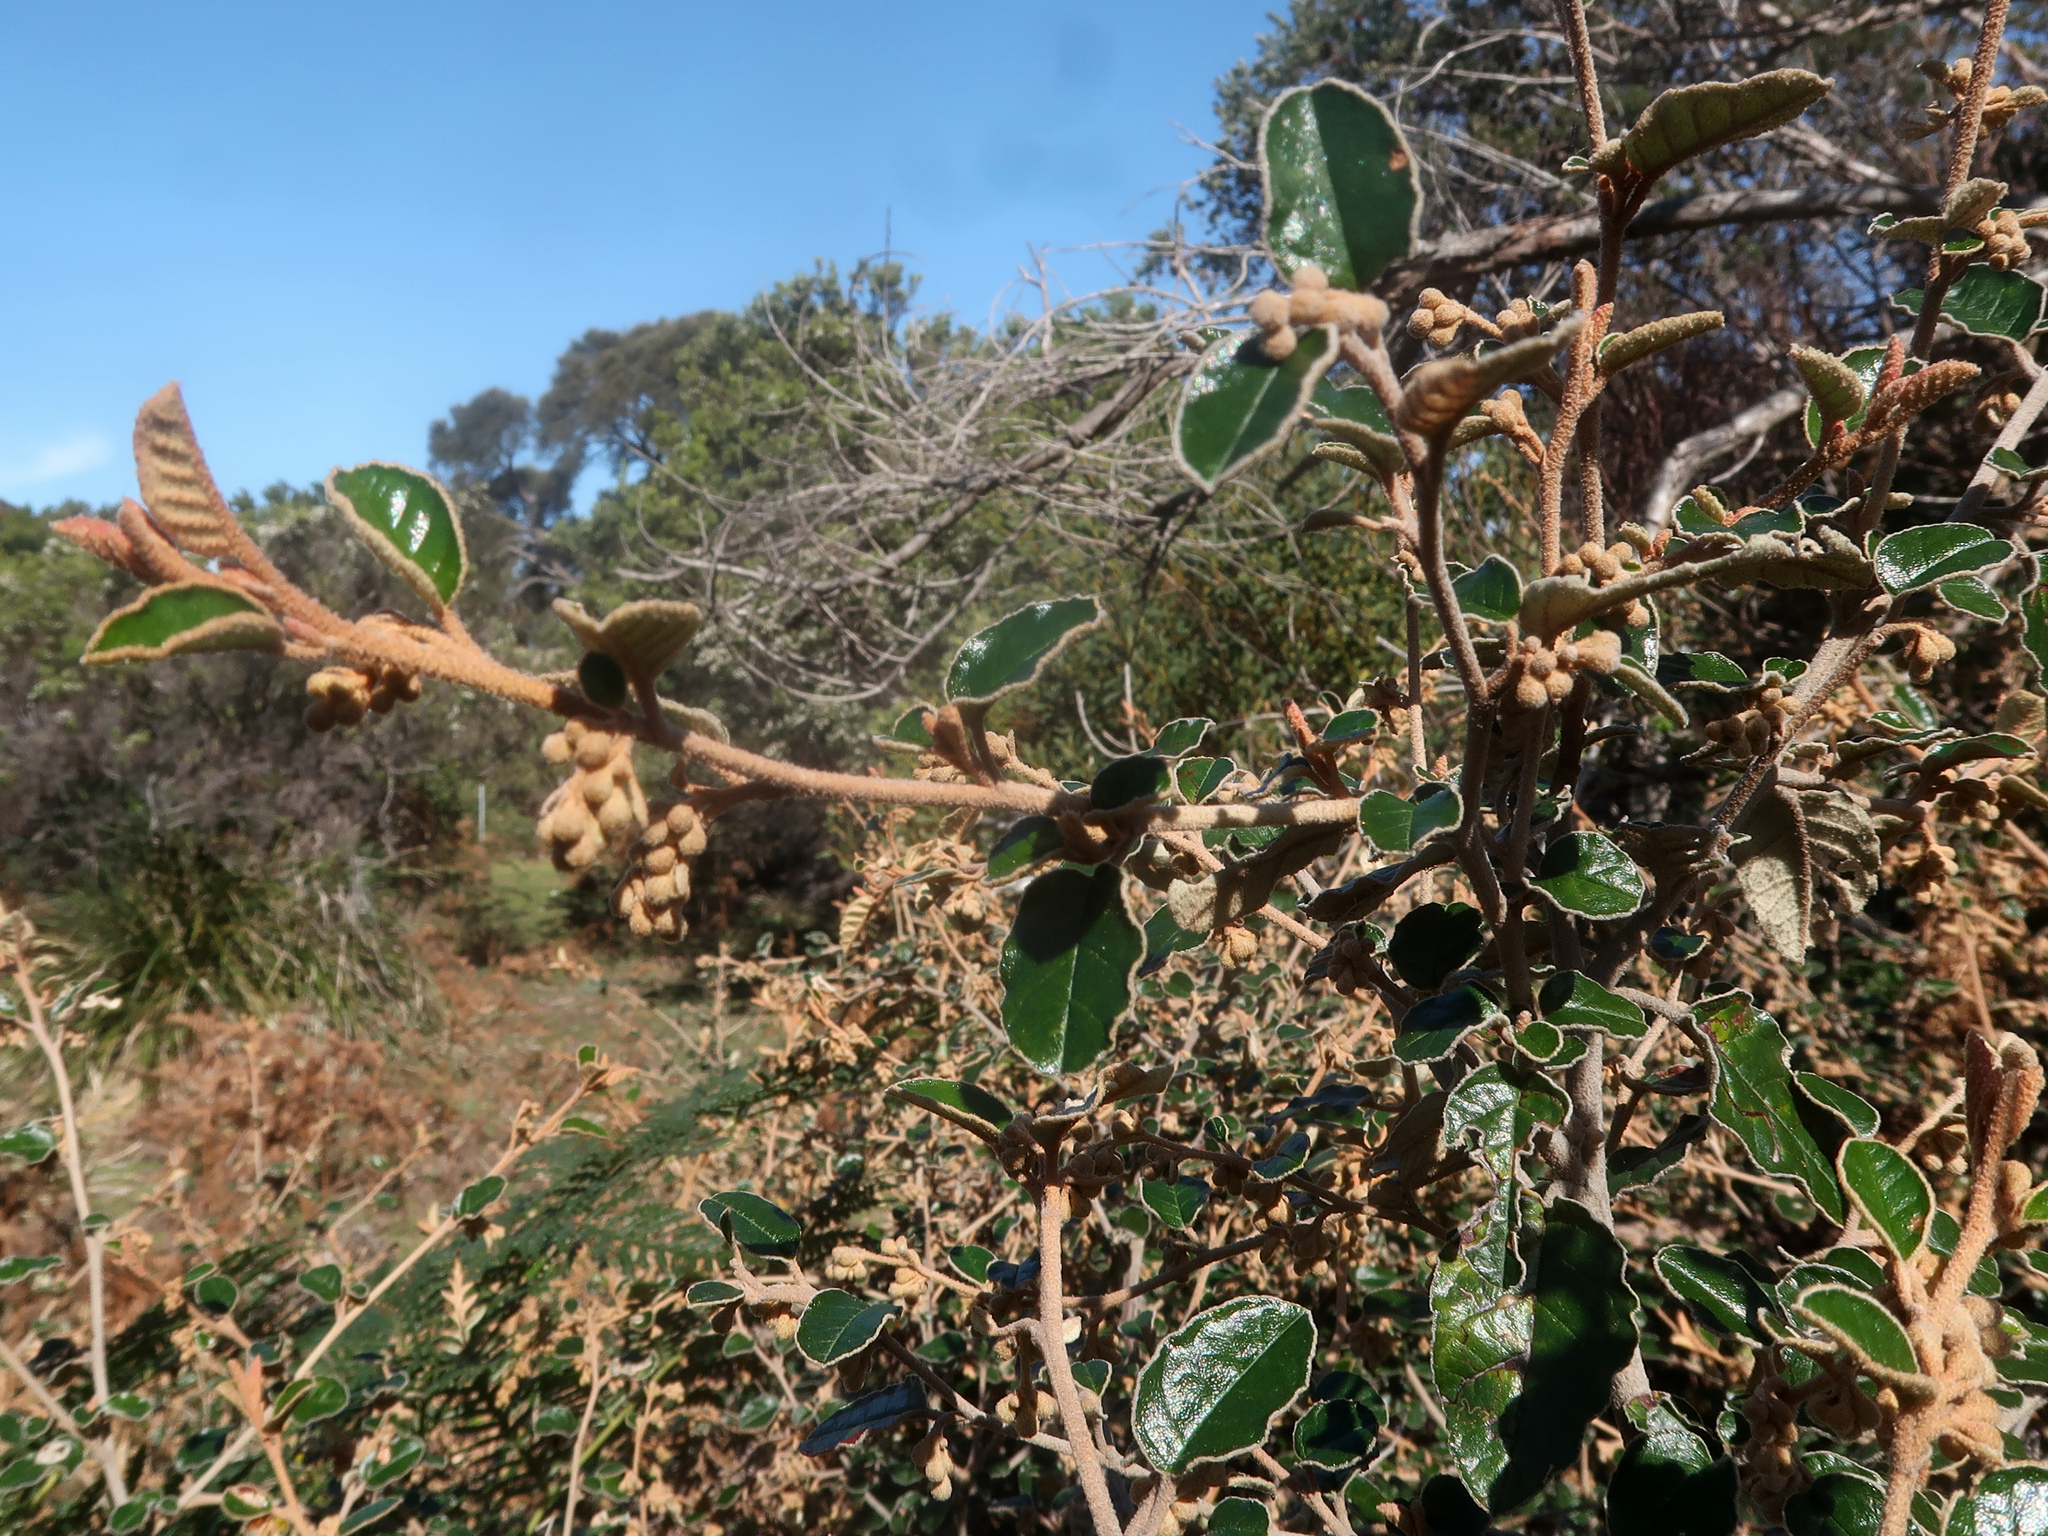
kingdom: Plantae
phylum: Tracheophyta
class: Magnoliopsida
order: Rosales
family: Rhamnaceae
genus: Pomaderris
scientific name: Pomaderris paniculosa
